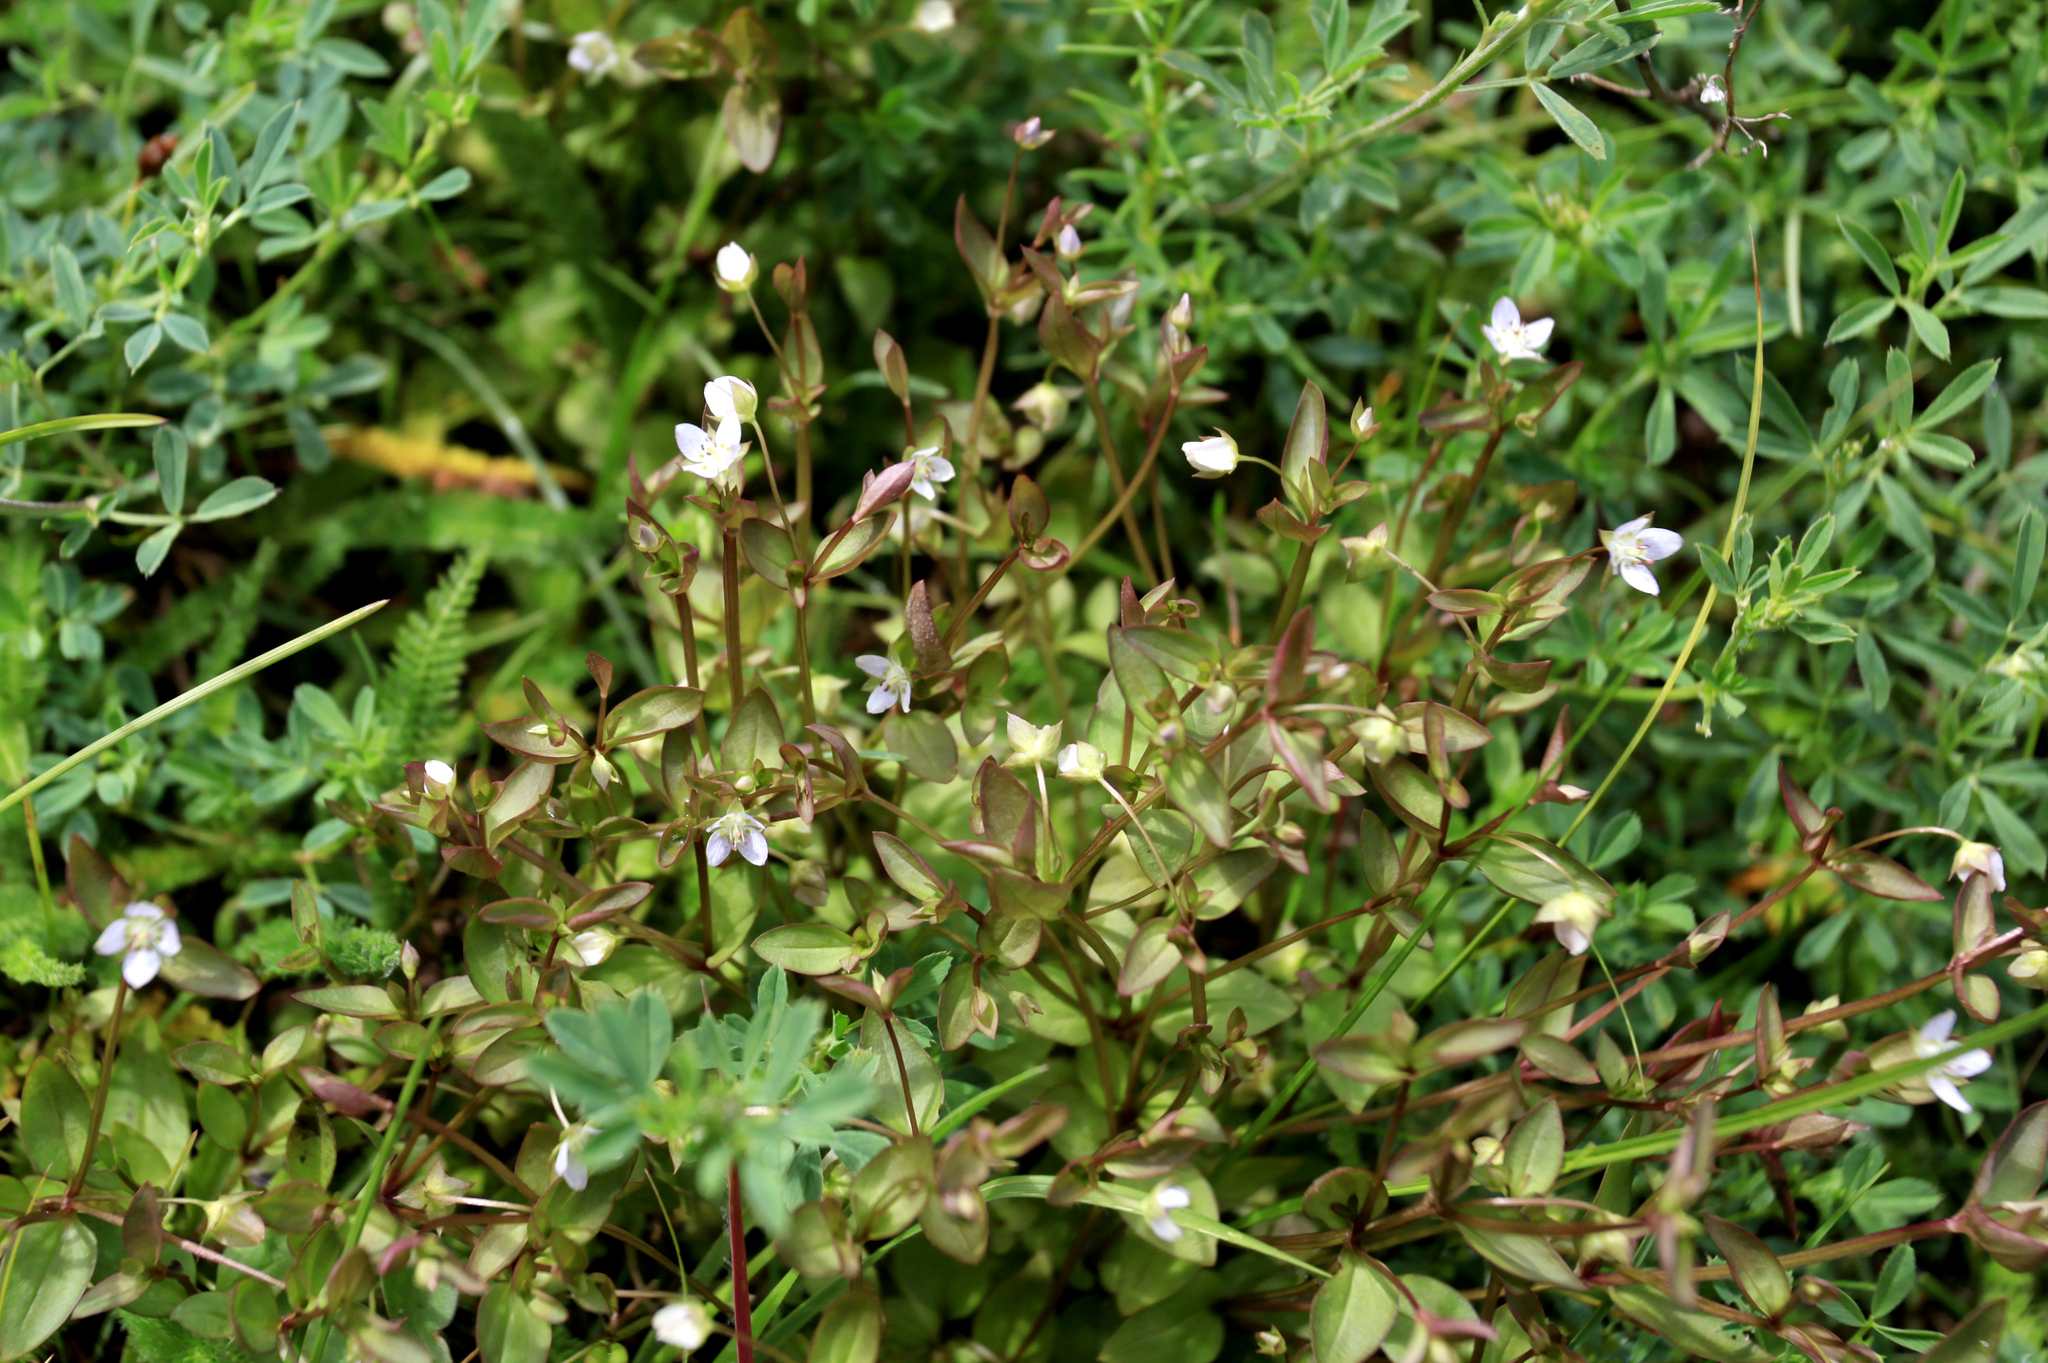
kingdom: Plantae
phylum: Tracheophyta
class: Magnoliopsida
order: Gentianales
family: Gentianaceae
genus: Swertia
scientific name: Swertia dichotoma
